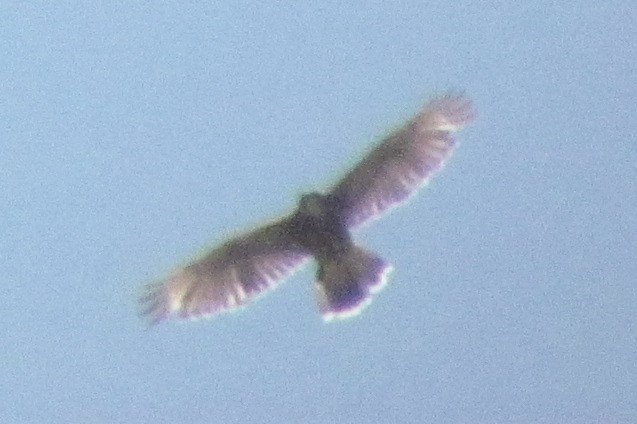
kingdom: Animalia
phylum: Chordata
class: Aves
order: Accipitriformes
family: Accipitridae
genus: Buteo
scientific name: Buteo swainsoni
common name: Swainson's hawk
